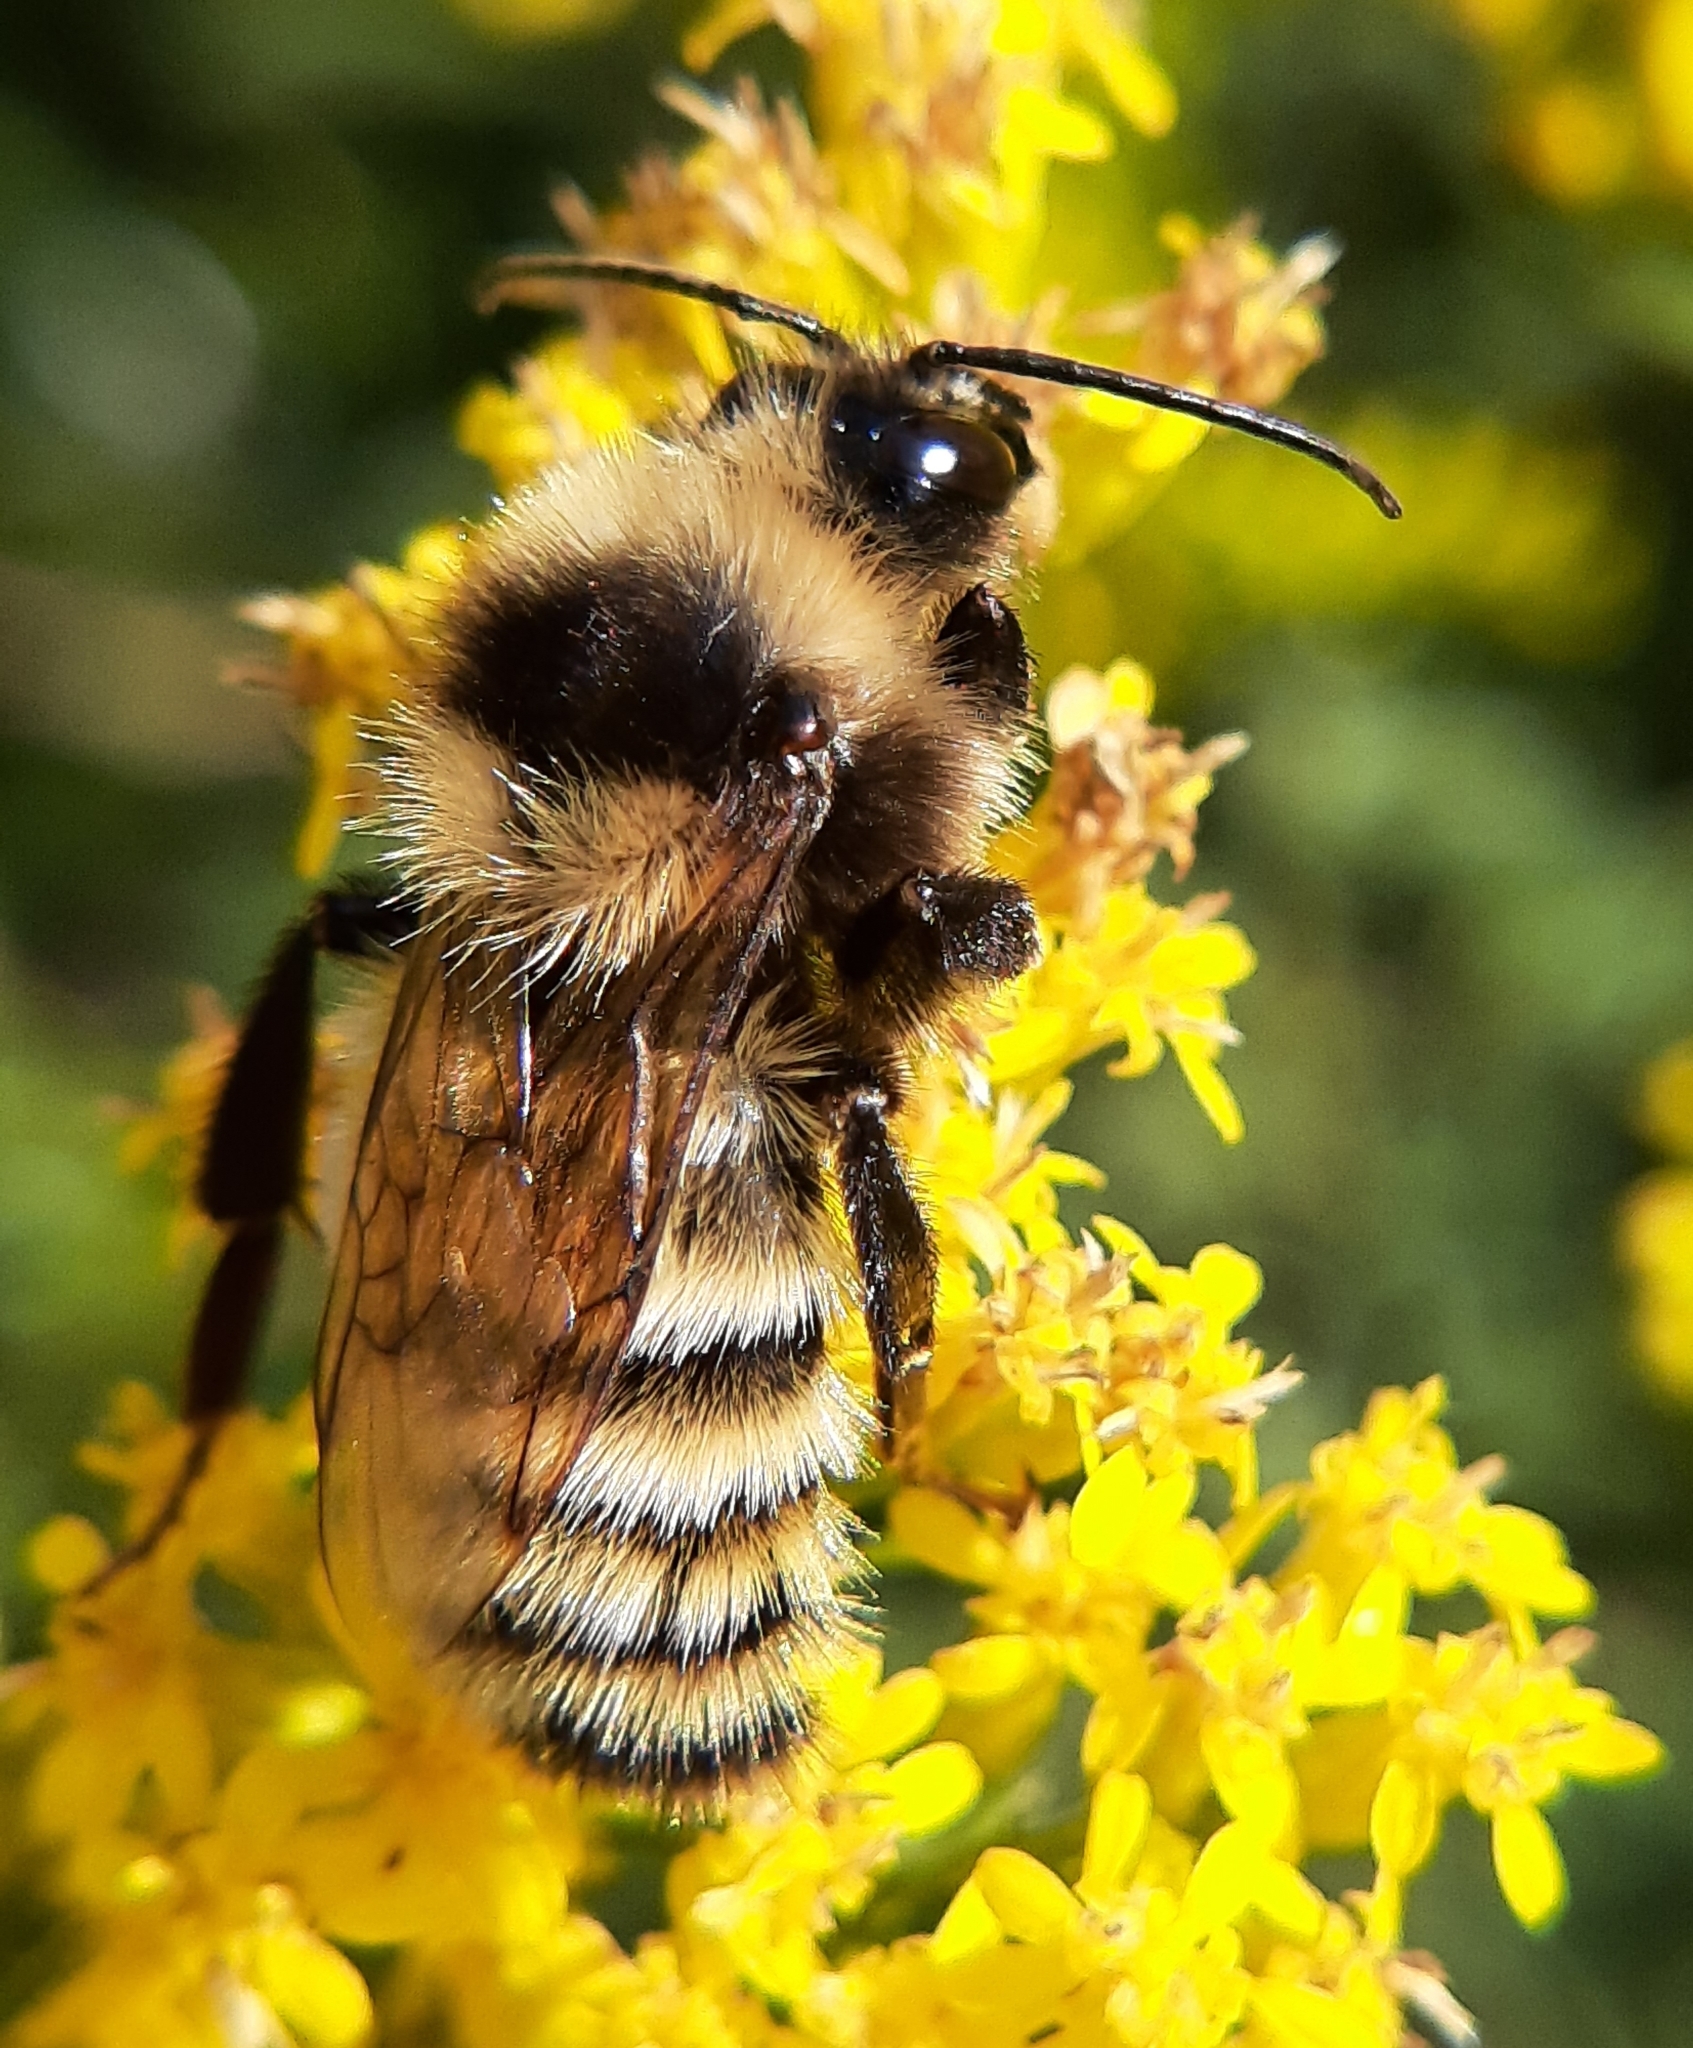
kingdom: Animalia
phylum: Arthropoda
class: Insecta
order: Hymenoptera
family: Apidae
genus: Bombus
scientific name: Bombus borealis
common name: Northern amber bumble bee
